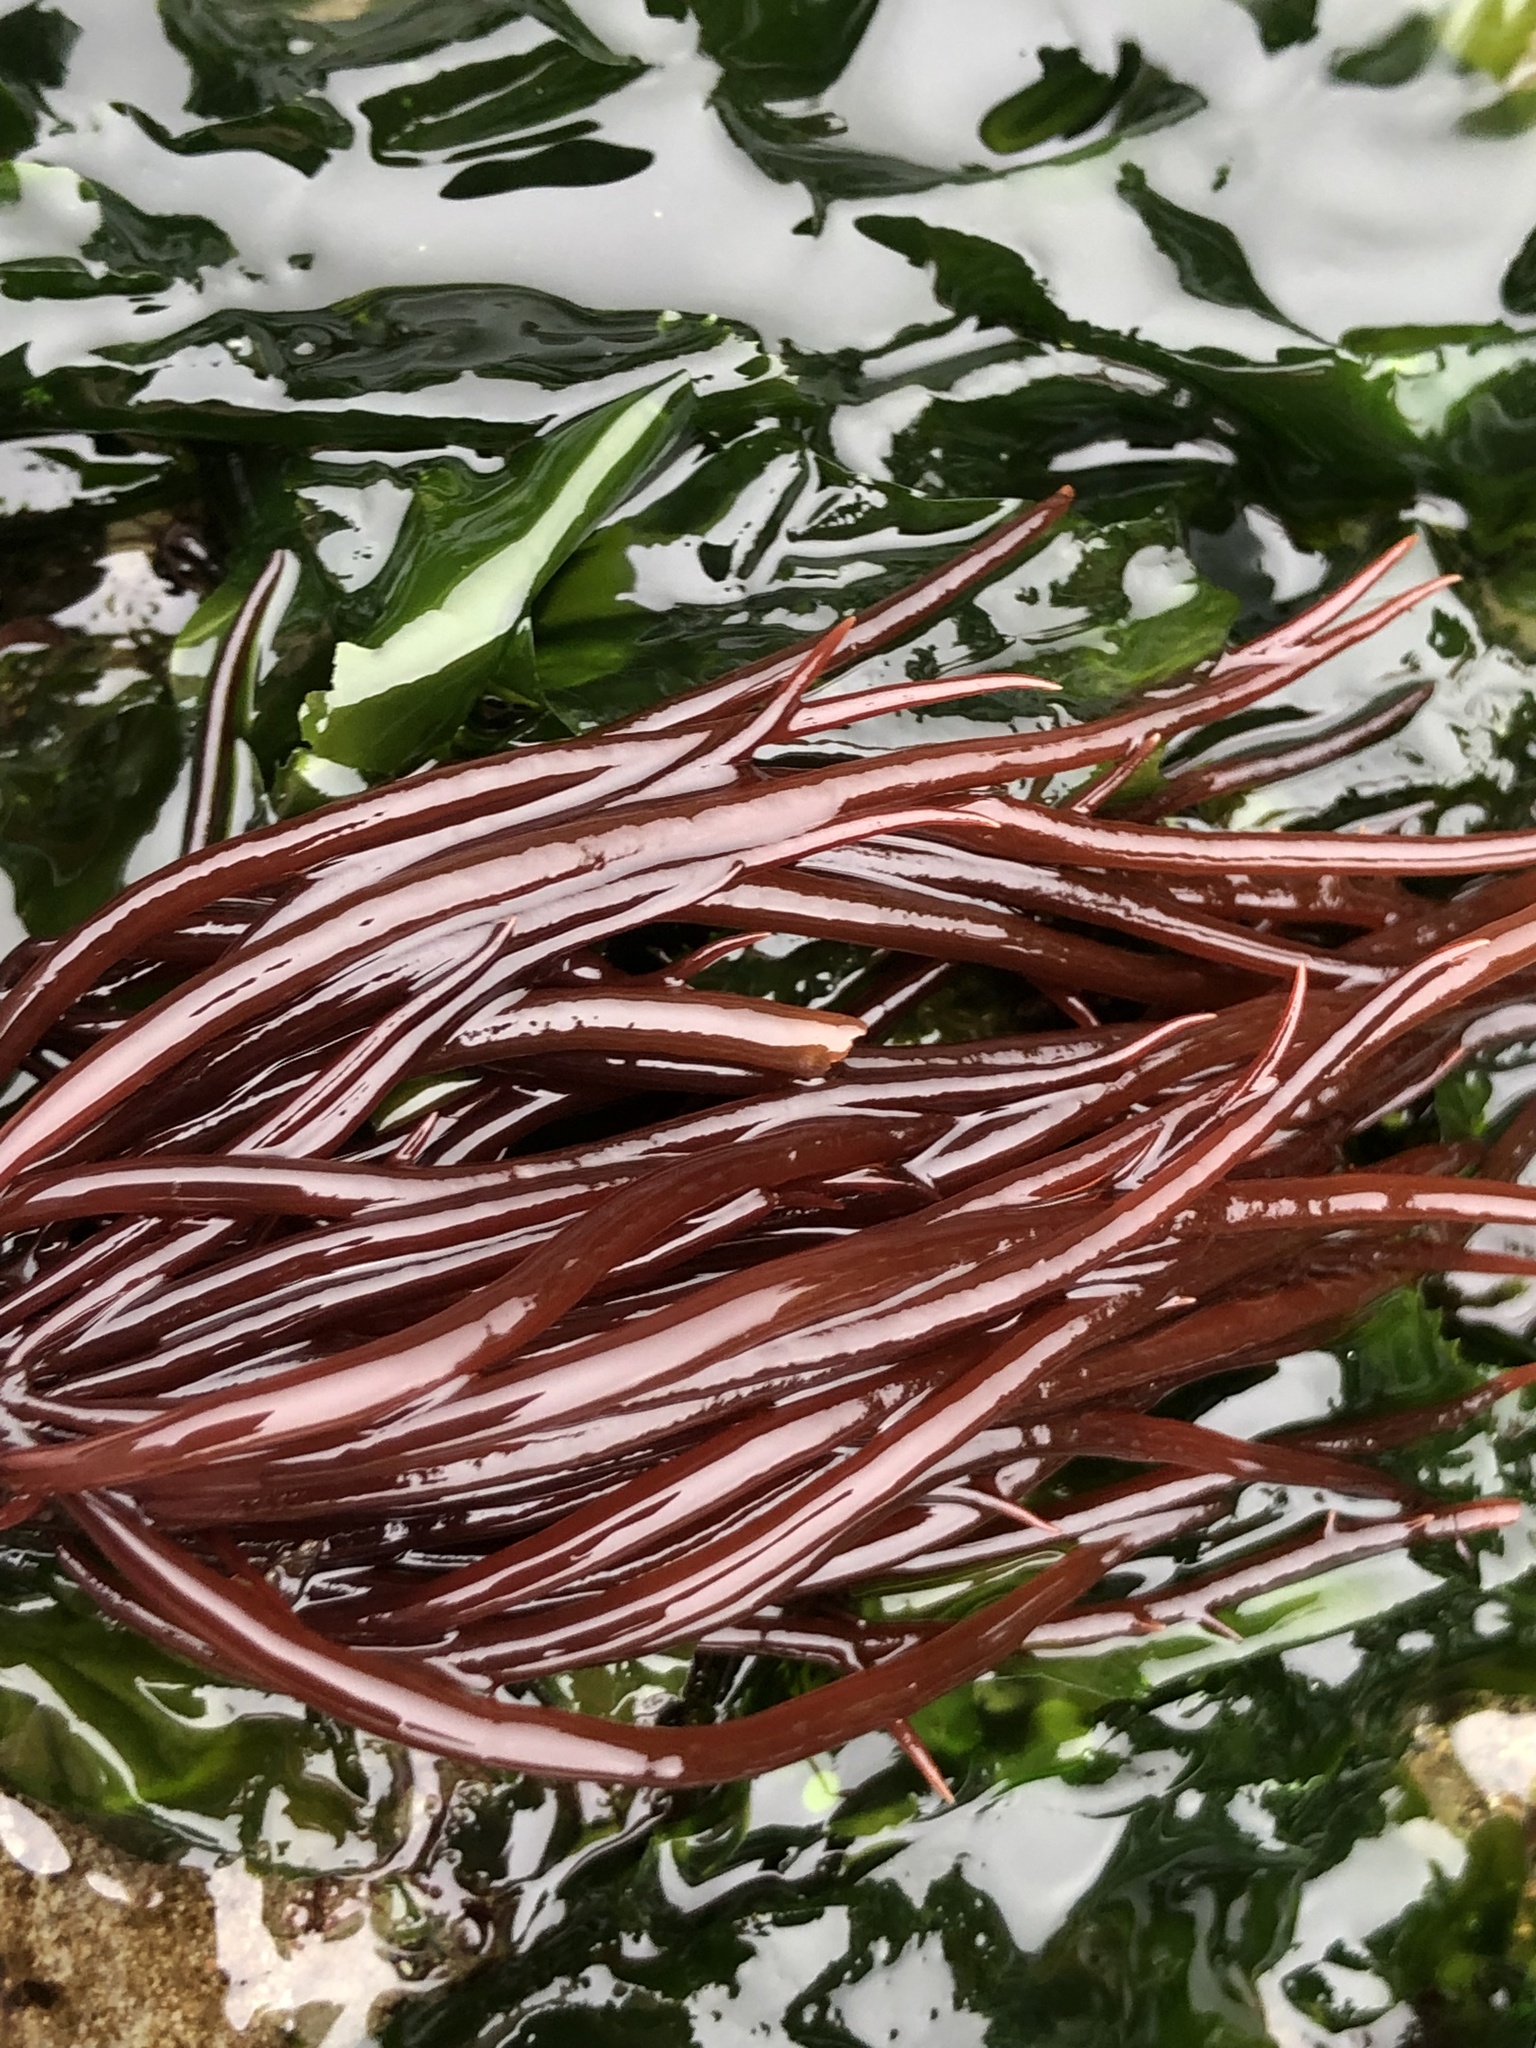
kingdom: Plantae
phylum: Rhodophyta
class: Florideophyceae
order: Gigartinales
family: Solieriaceae
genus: Sarcodiotheca
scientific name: Sarcodiotheca gaudichaudii
